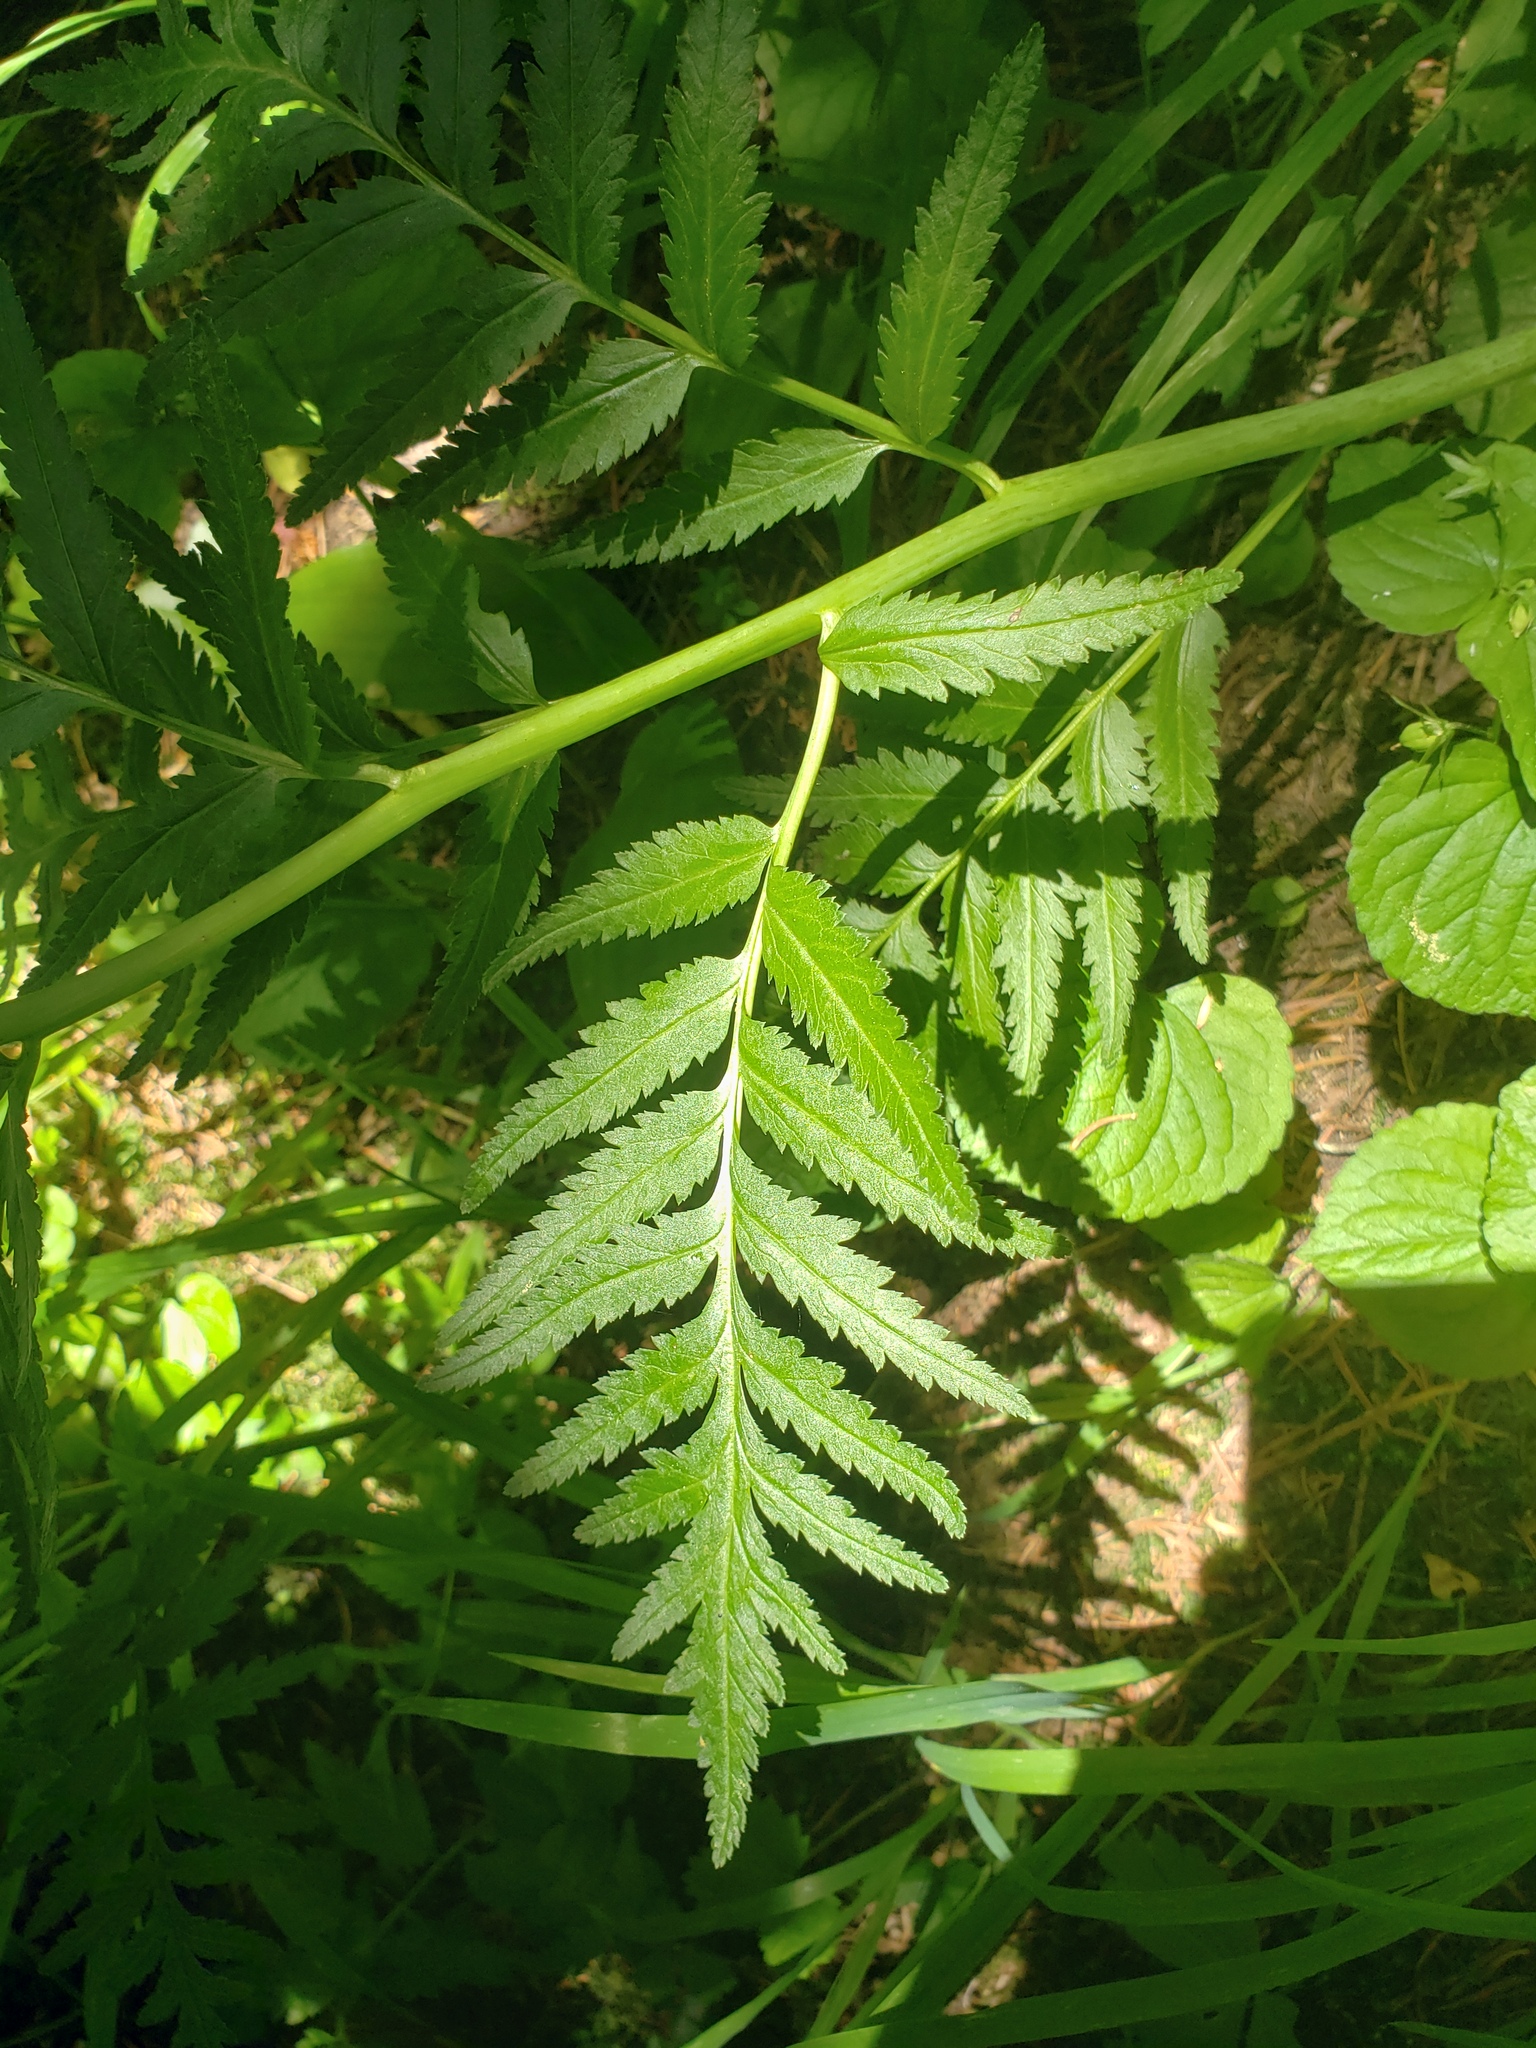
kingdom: Plantae
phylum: Tracheophyta
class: Magnoliopsida
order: Lamiales
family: Orobanchaceae
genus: Pedicularis
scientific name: Pedicularis bracteosa
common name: Bracted lousewort
